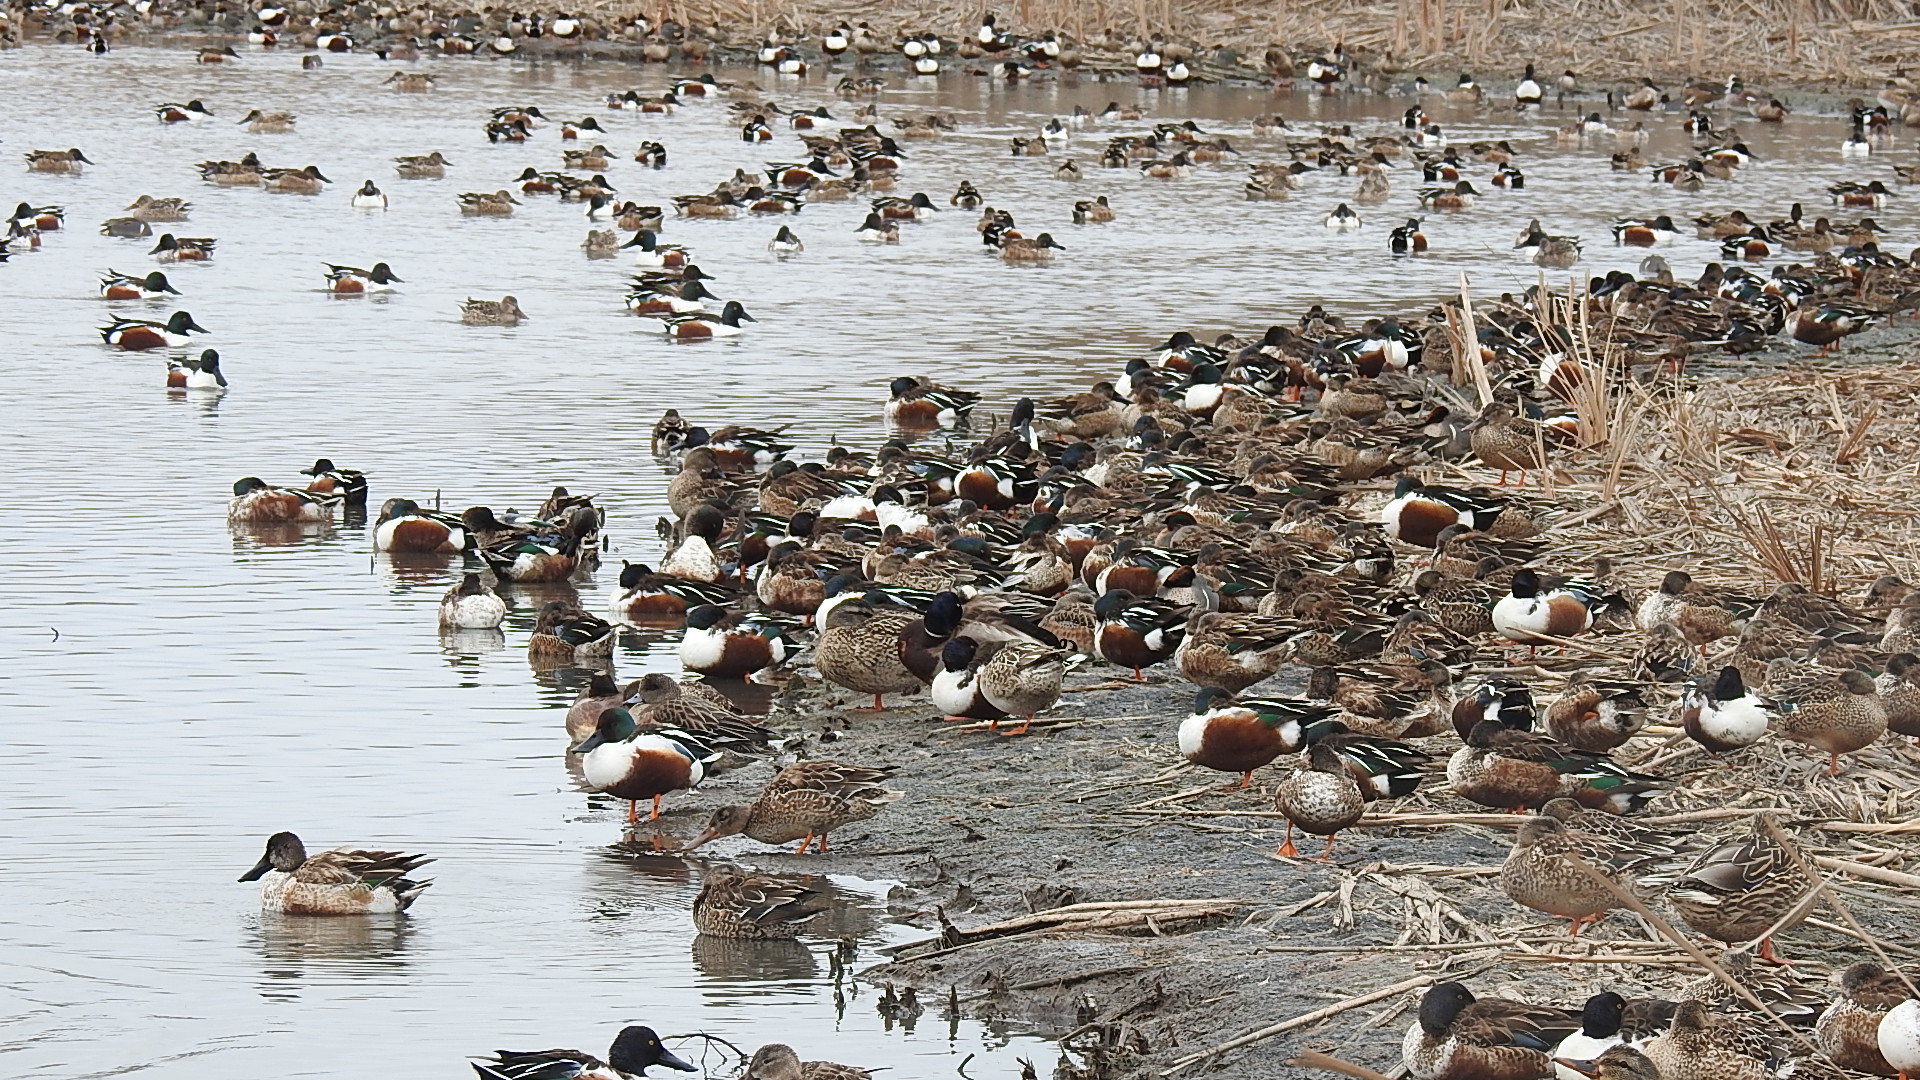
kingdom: Animalia
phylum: Chordata
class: Aves
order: Anseriformes
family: Anatidae
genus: Spatula
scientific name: Spatula clypeata
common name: Northern shoveler
